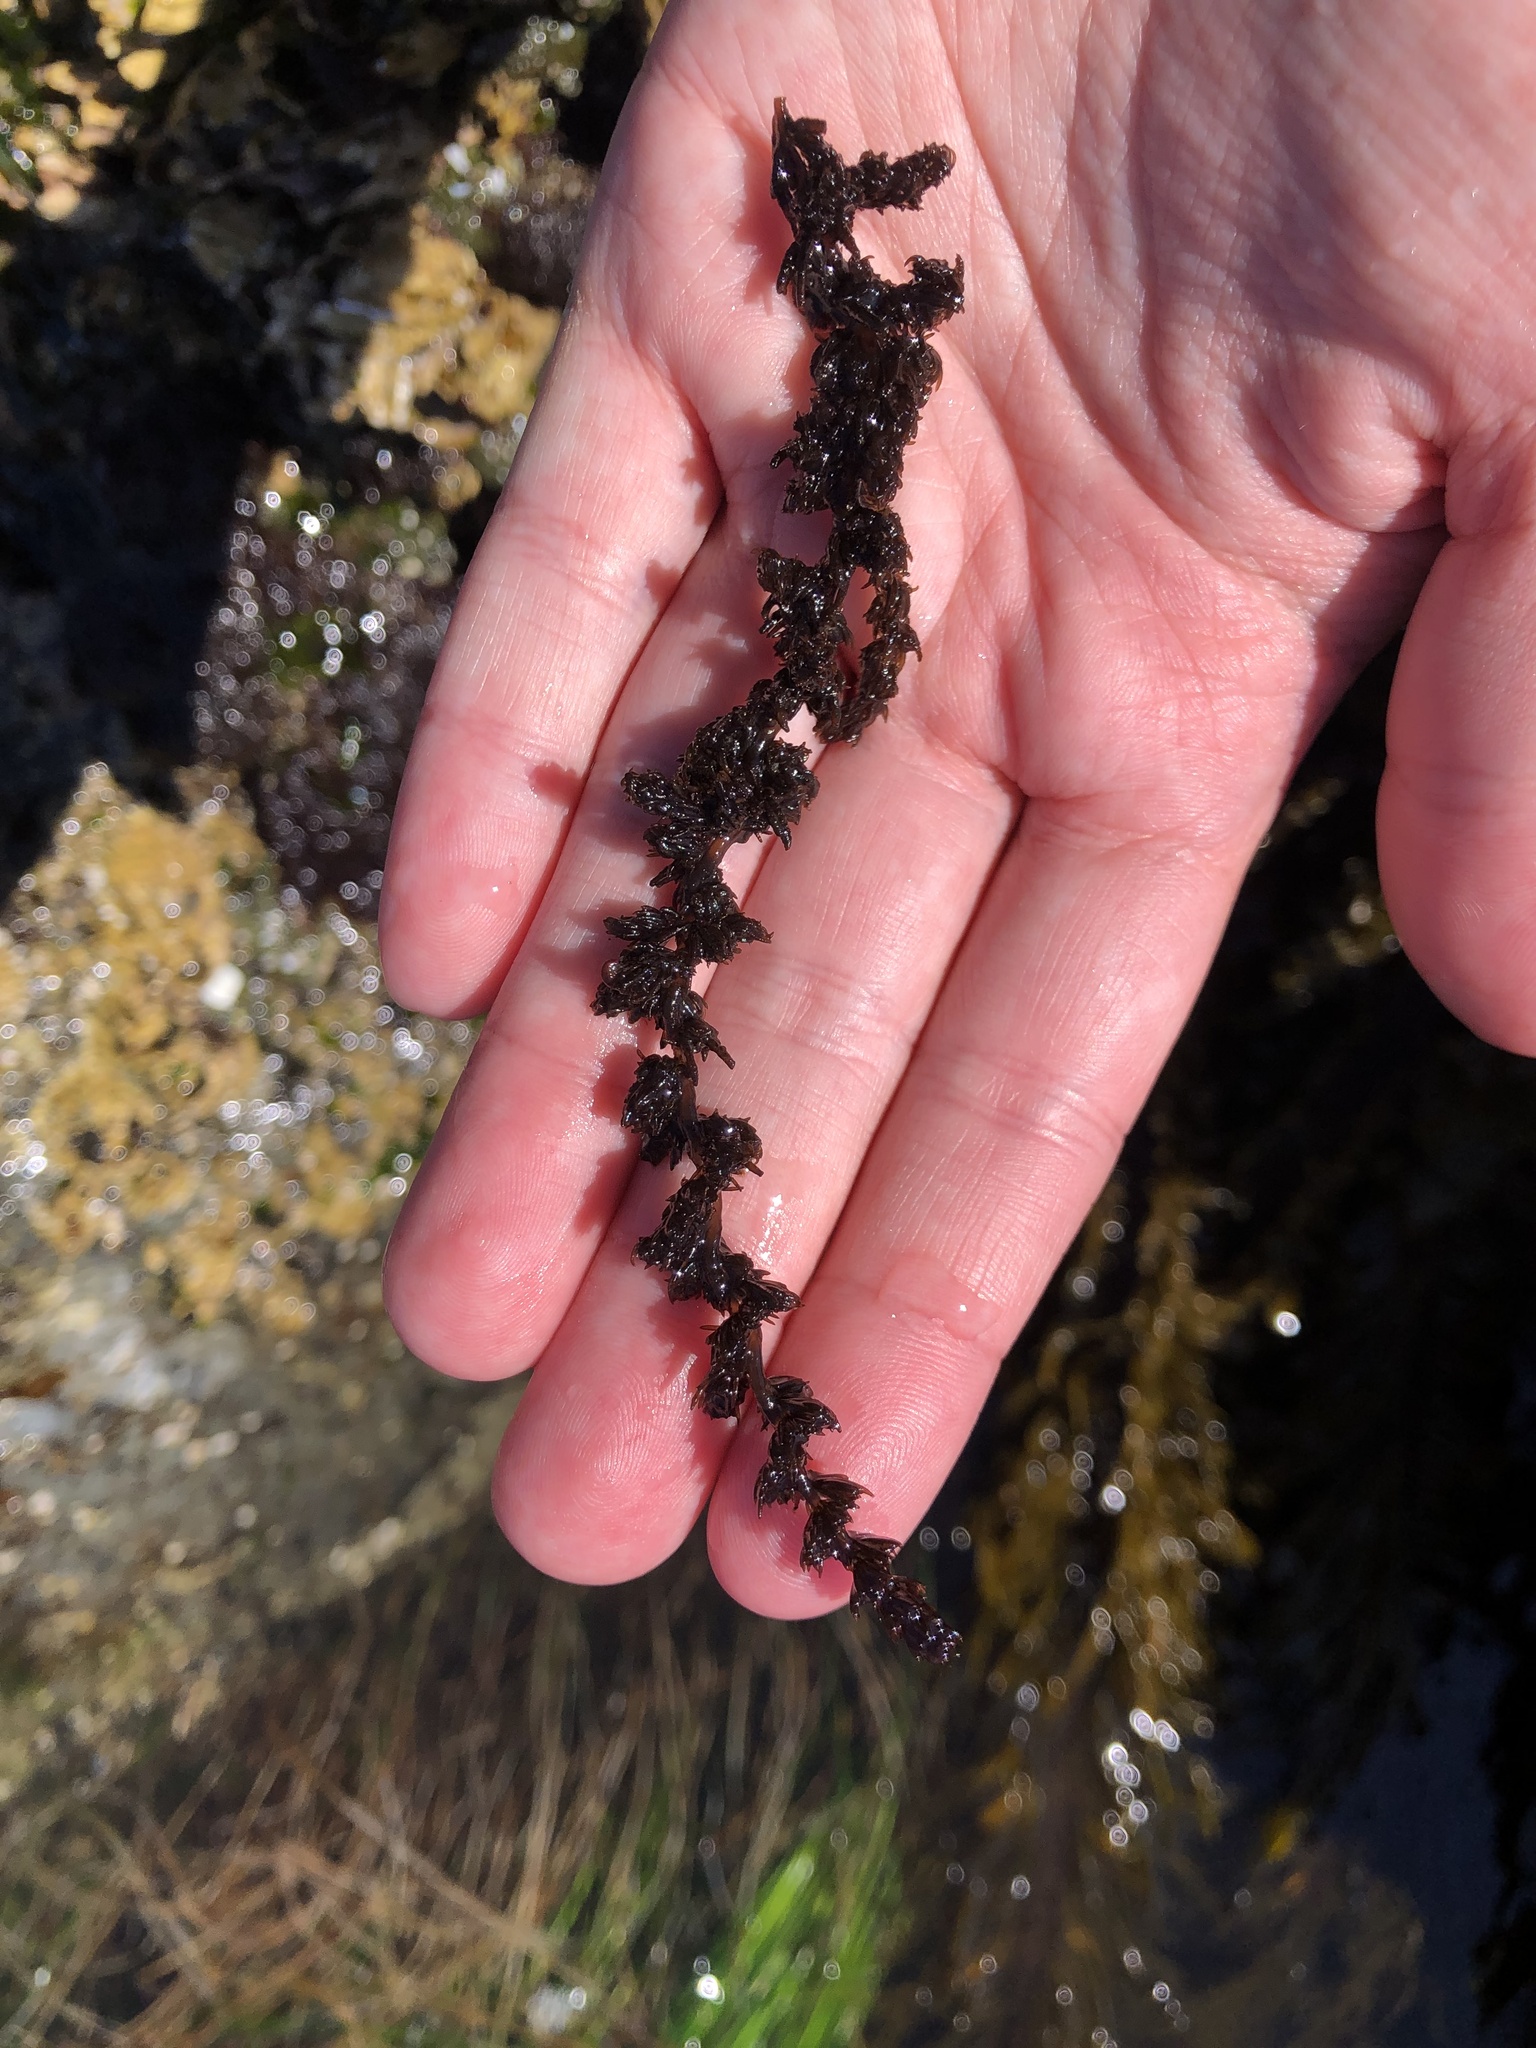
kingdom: Plantae
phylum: Rhodophyta
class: Florideophyceae
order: Ceramiales
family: Rhodomelaceae
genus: Neorhodomela
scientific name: Neorhodomela larix
